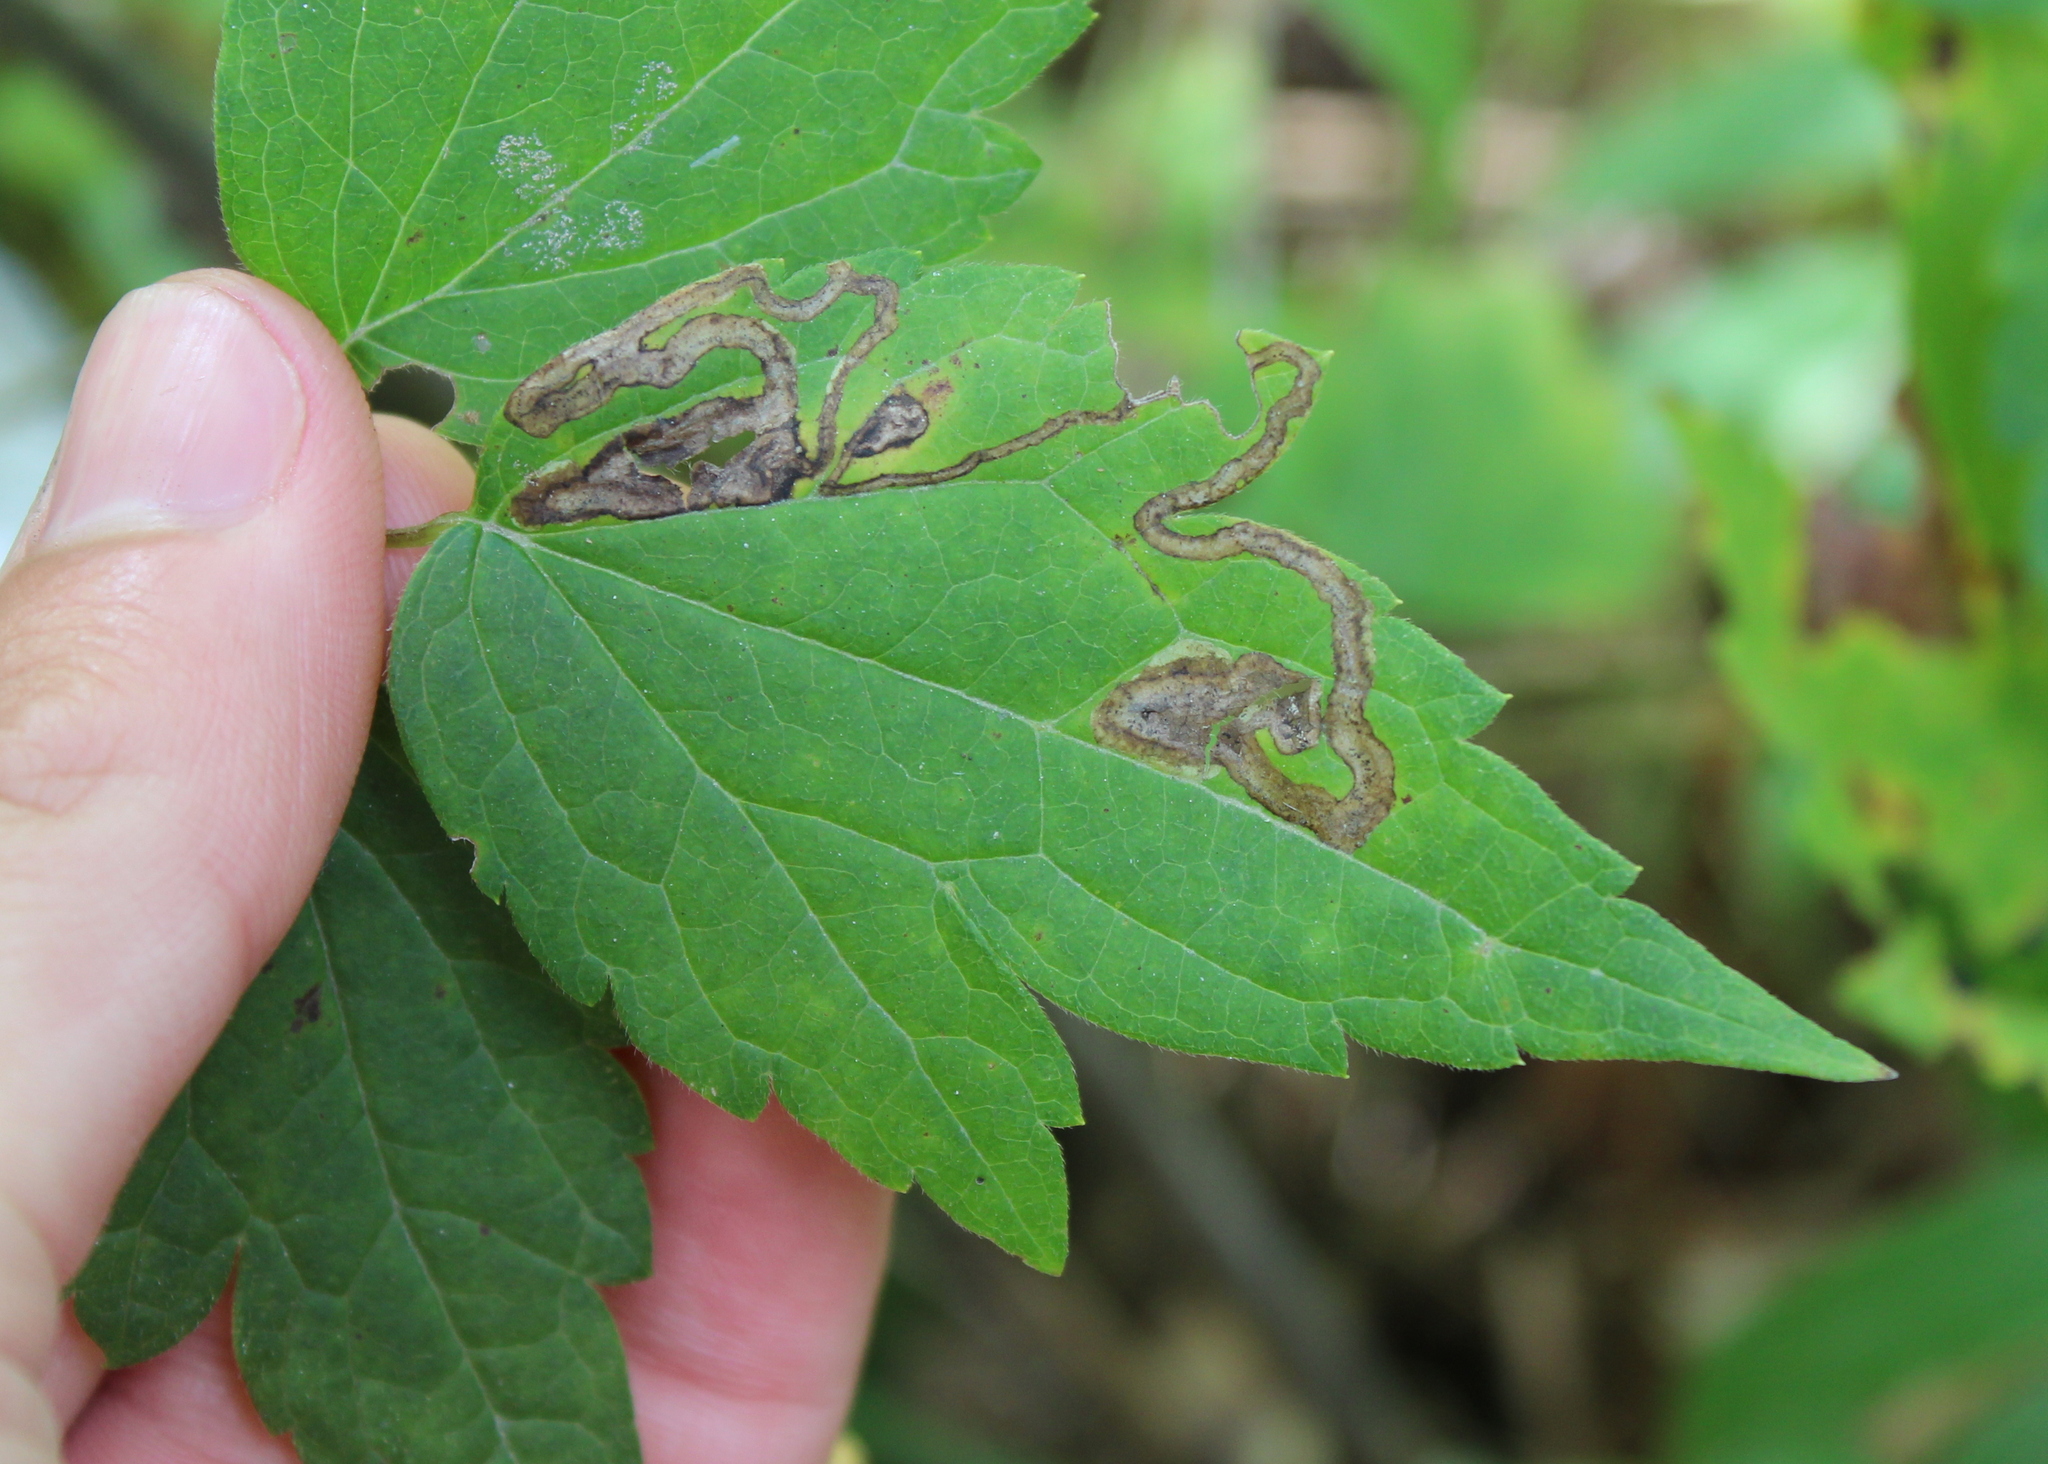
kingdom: Plantae
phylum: Tracheophyta
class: Magnoliopsida
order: Ranunculales
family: Ranunculaceae
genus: Clematis
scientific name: Clematis virginiana
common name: Virgin's-bower
